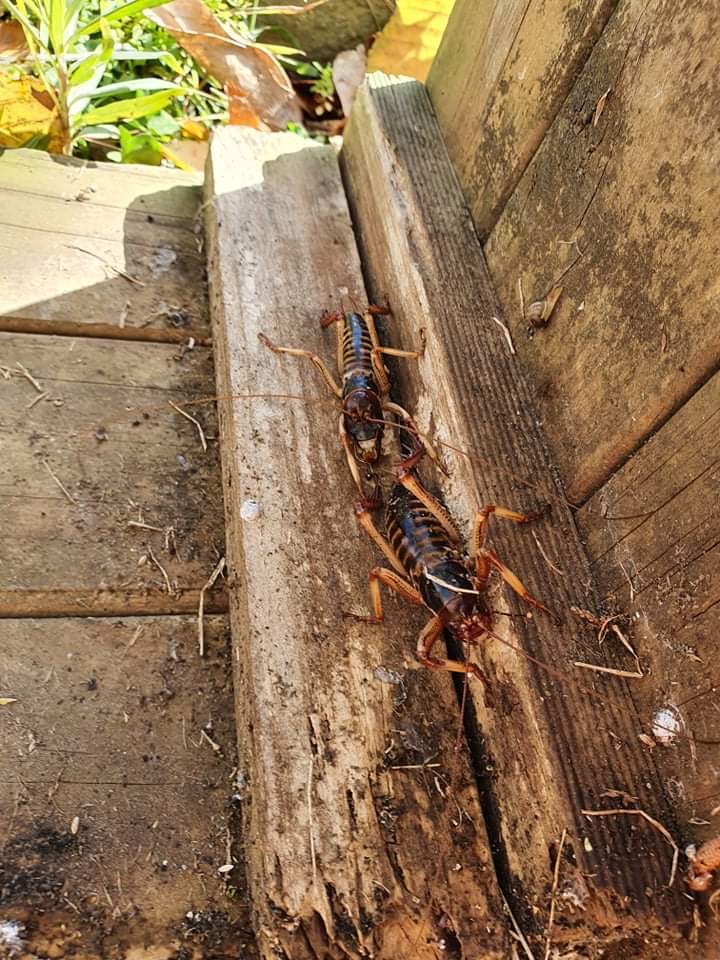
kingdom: Animalia
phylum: Arthropoda
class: Insecta
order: Orthoptera
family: Anostostomatidae
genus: Hemideina
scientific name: Hemideina crassidens
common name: Wellington tree weta
